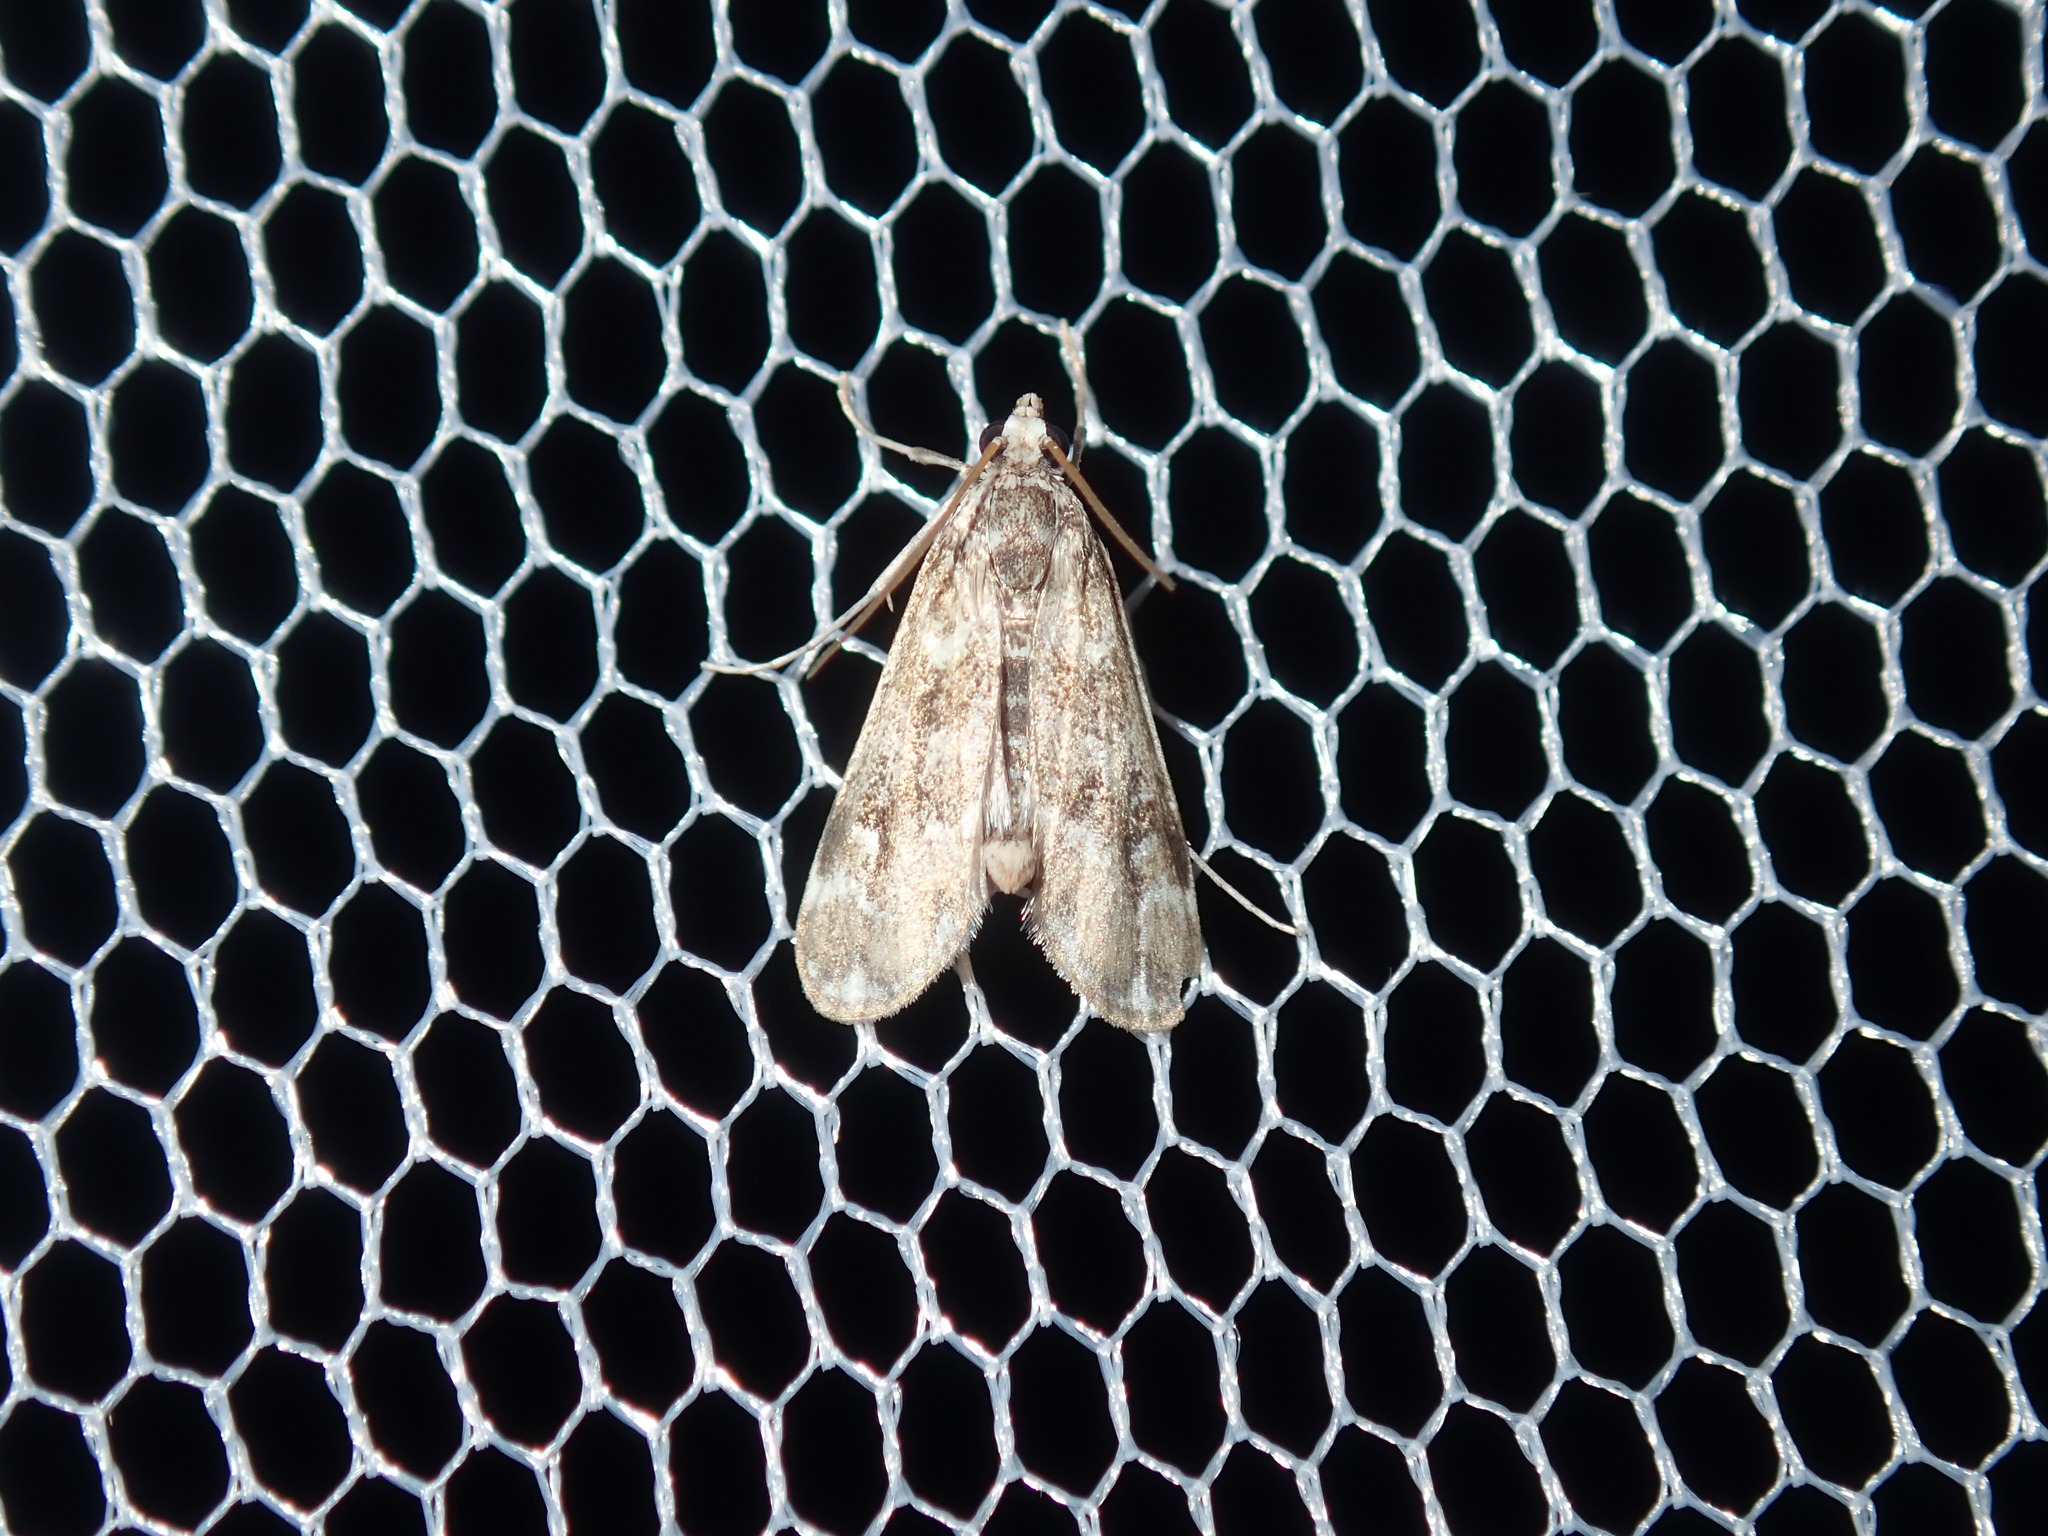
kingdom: Animalia
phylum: Arthropoda
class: Insecta
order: Lepidoptera
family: Crambidae
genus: Hygraula
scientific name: Hygraula nitens
